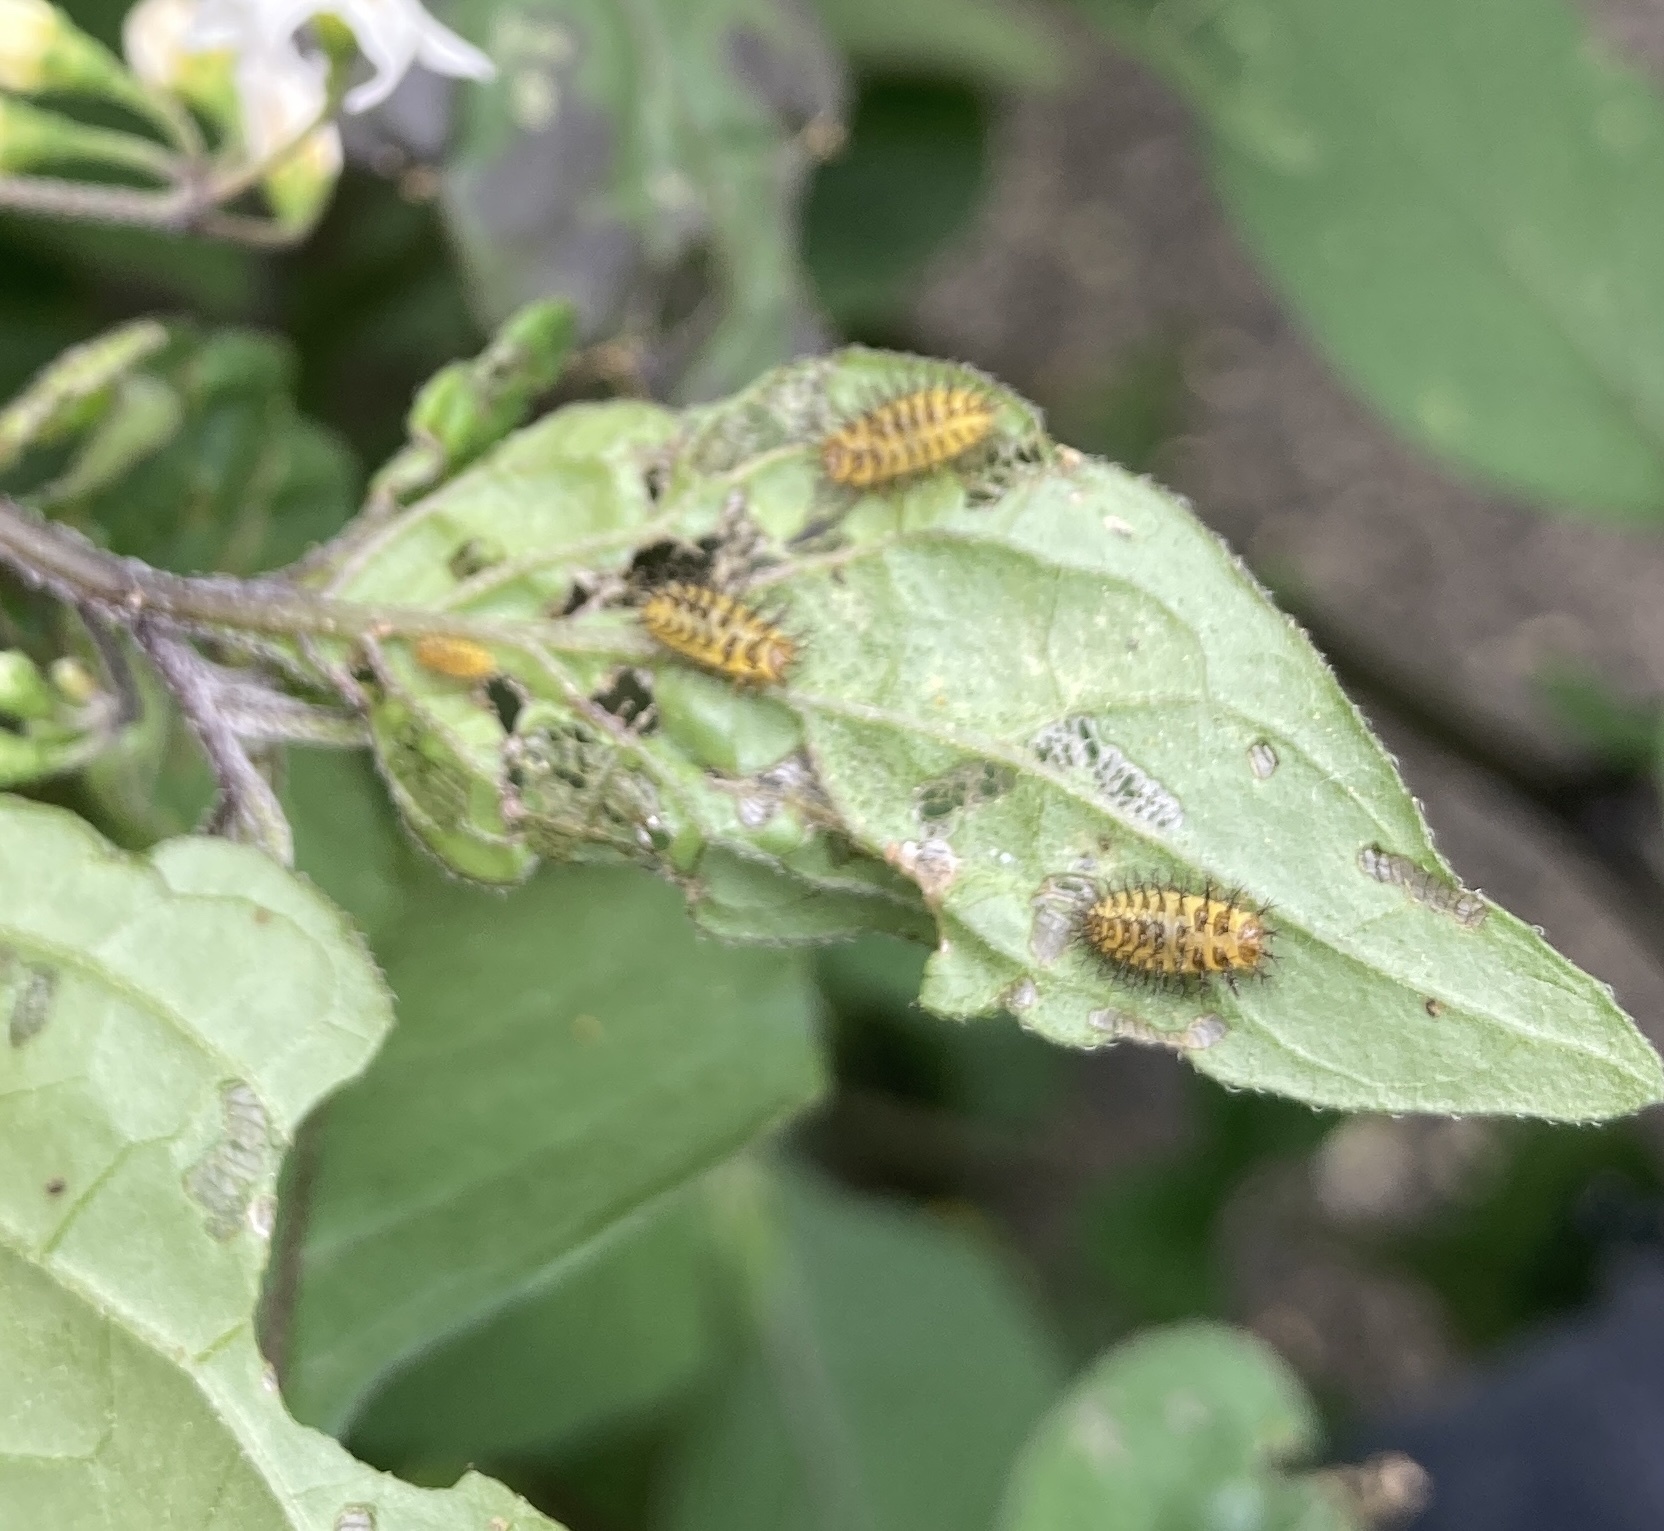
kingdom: Animalia
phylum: Arthropoda
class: Insecta
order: Coleoptera
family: Coccinellidae
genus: Henosepilachna
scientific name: Henosepilachna vigintioctopunctata
